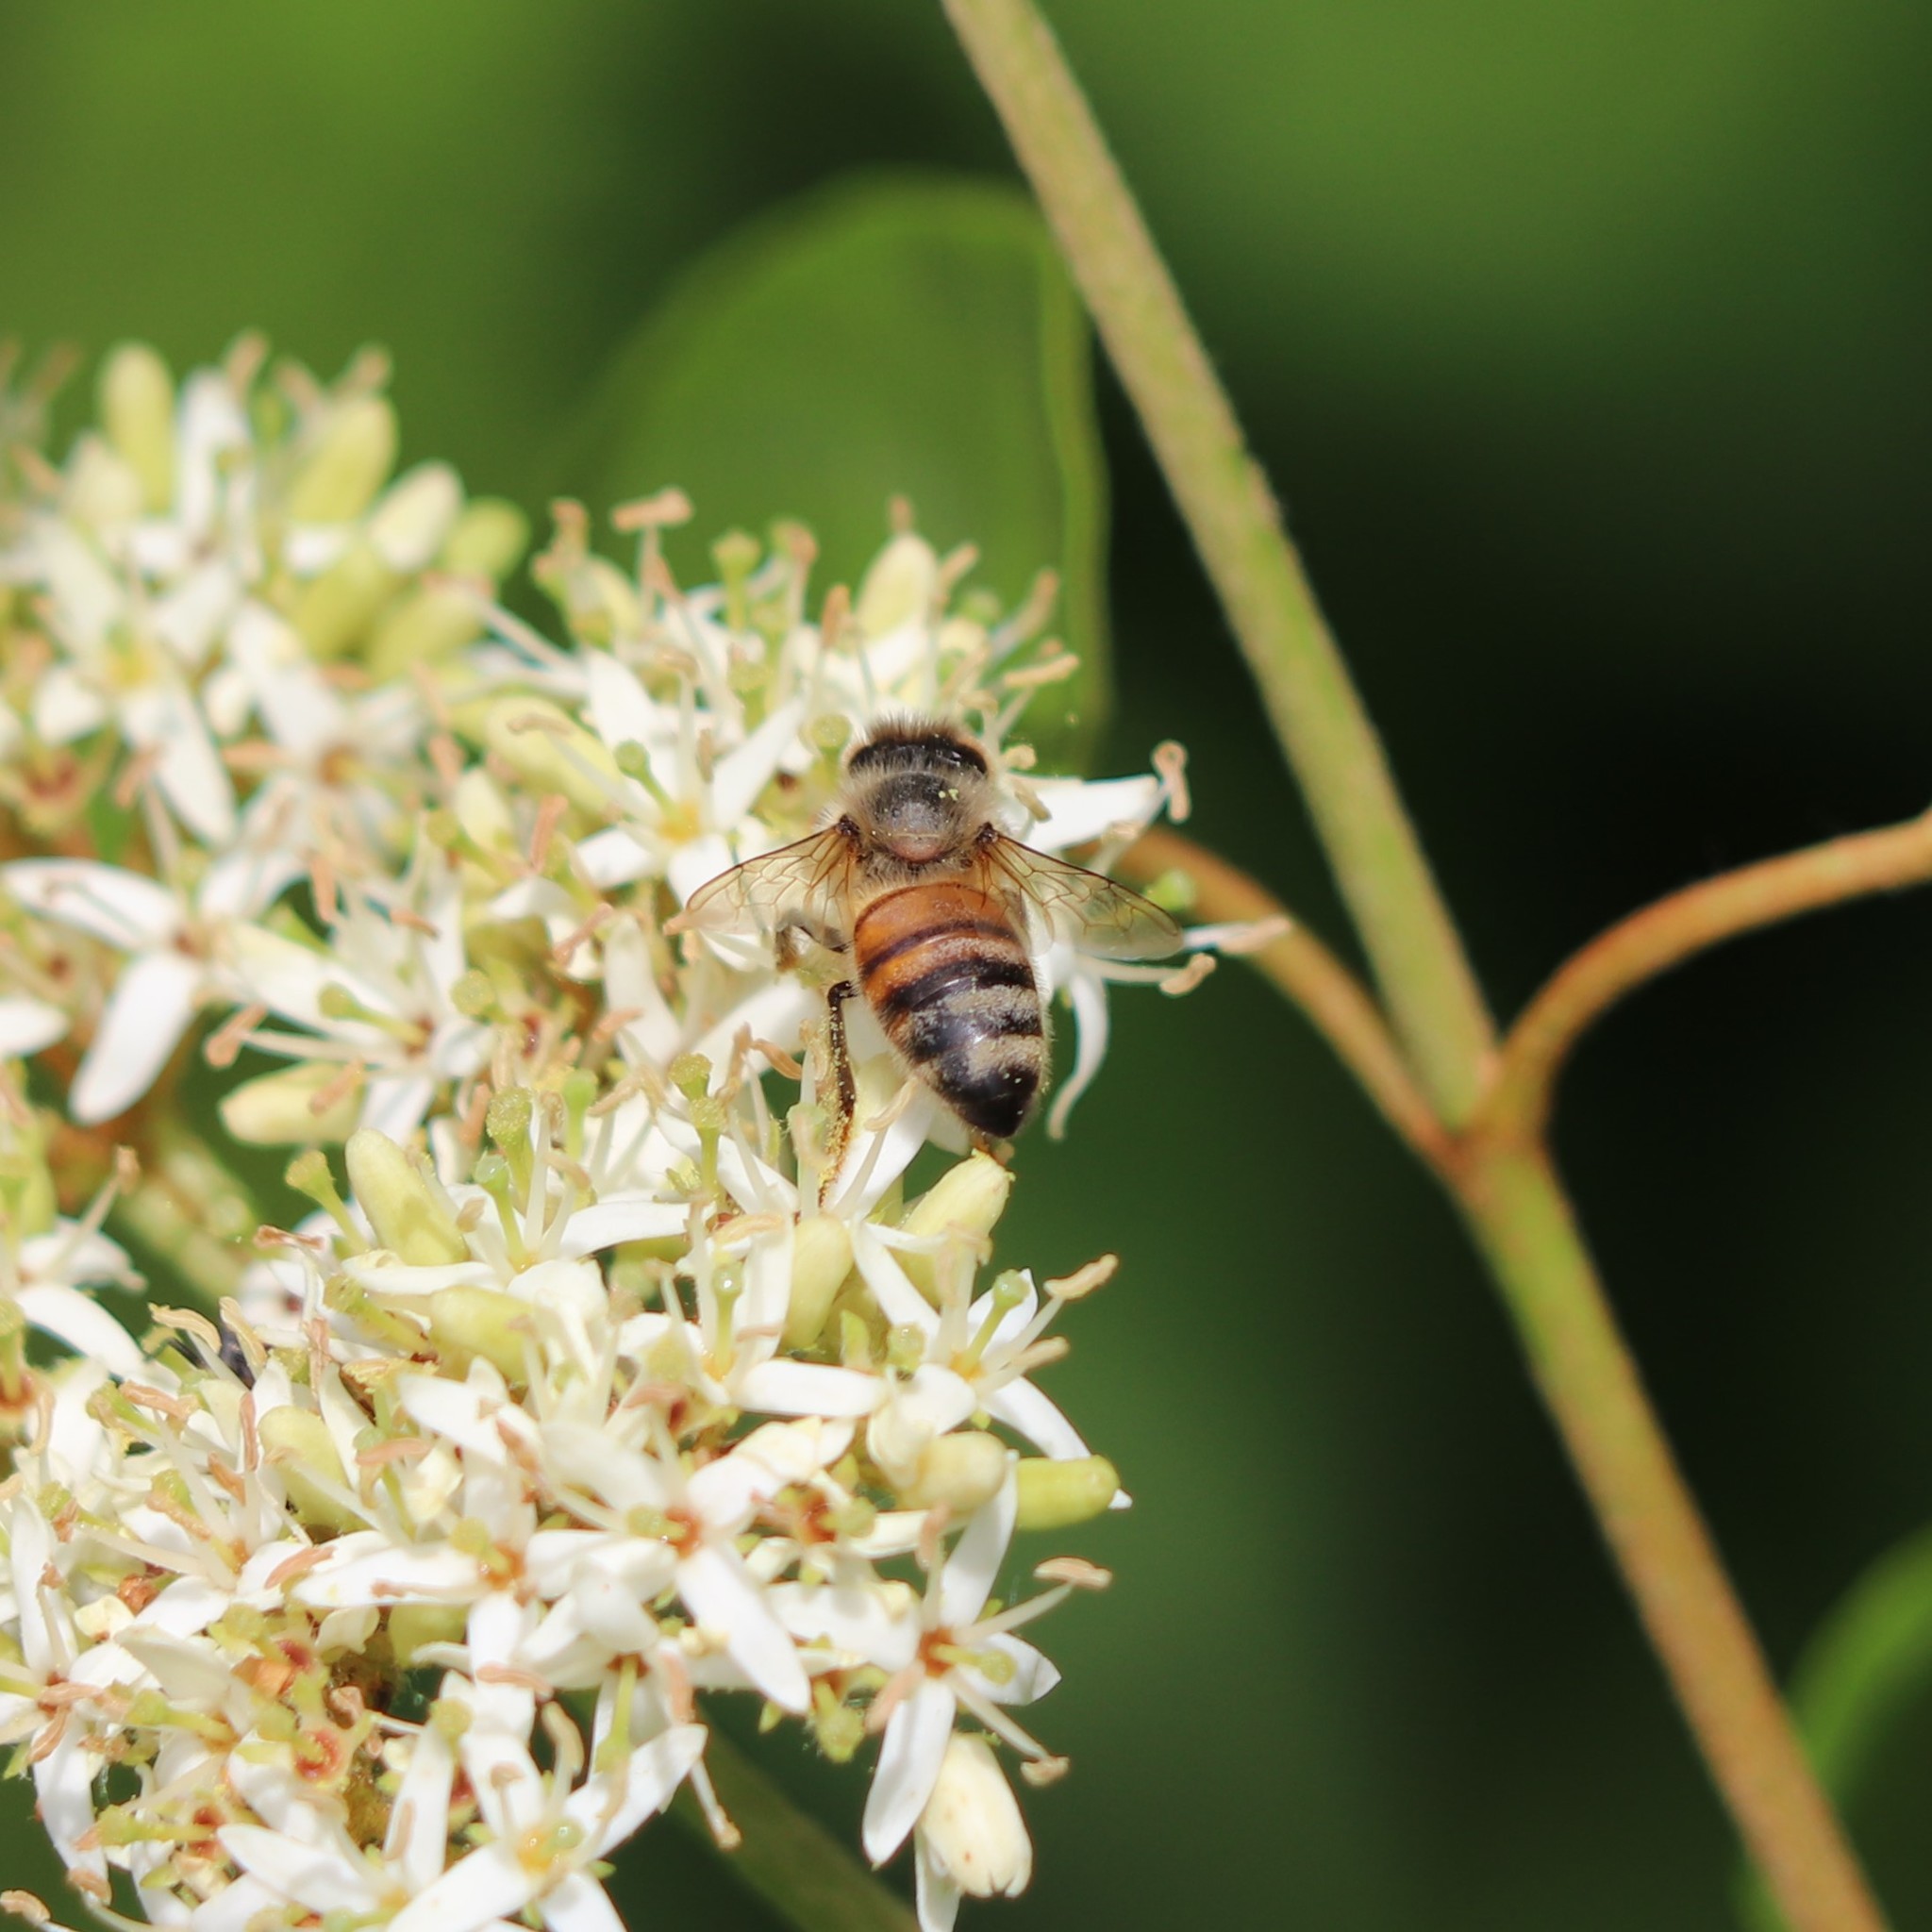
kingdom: Animalia
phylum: Arthropoda
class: Insecta
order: Hymenoptera
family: Apidae
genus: Apis
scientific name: Apis mellifera
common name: Honey bee
